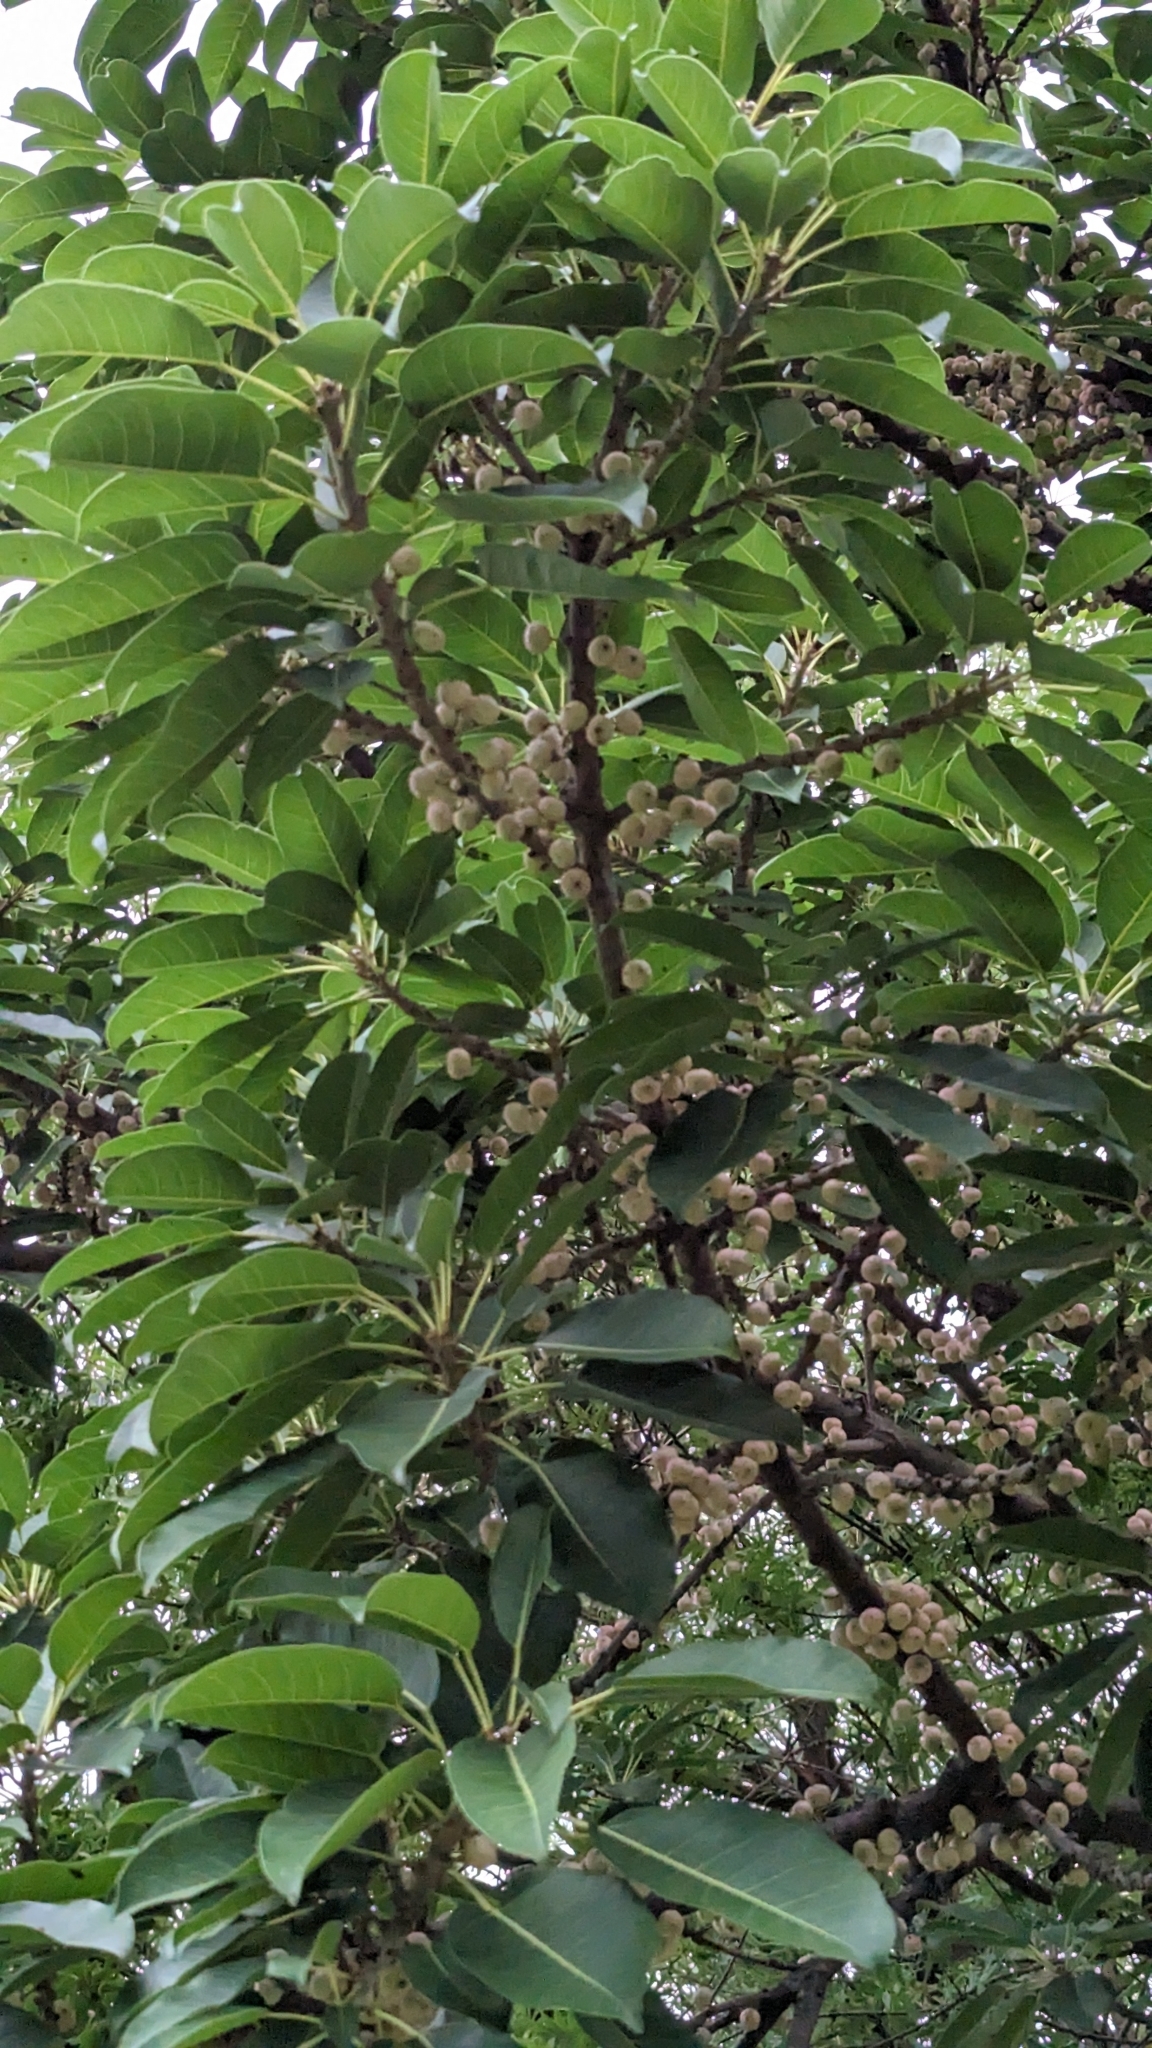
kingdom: Plantae
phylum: Tracheophyta
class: Magnoliopsida
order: Rosales
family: Moraceae
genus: Ficus
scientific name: Ficus subpisocarpa
